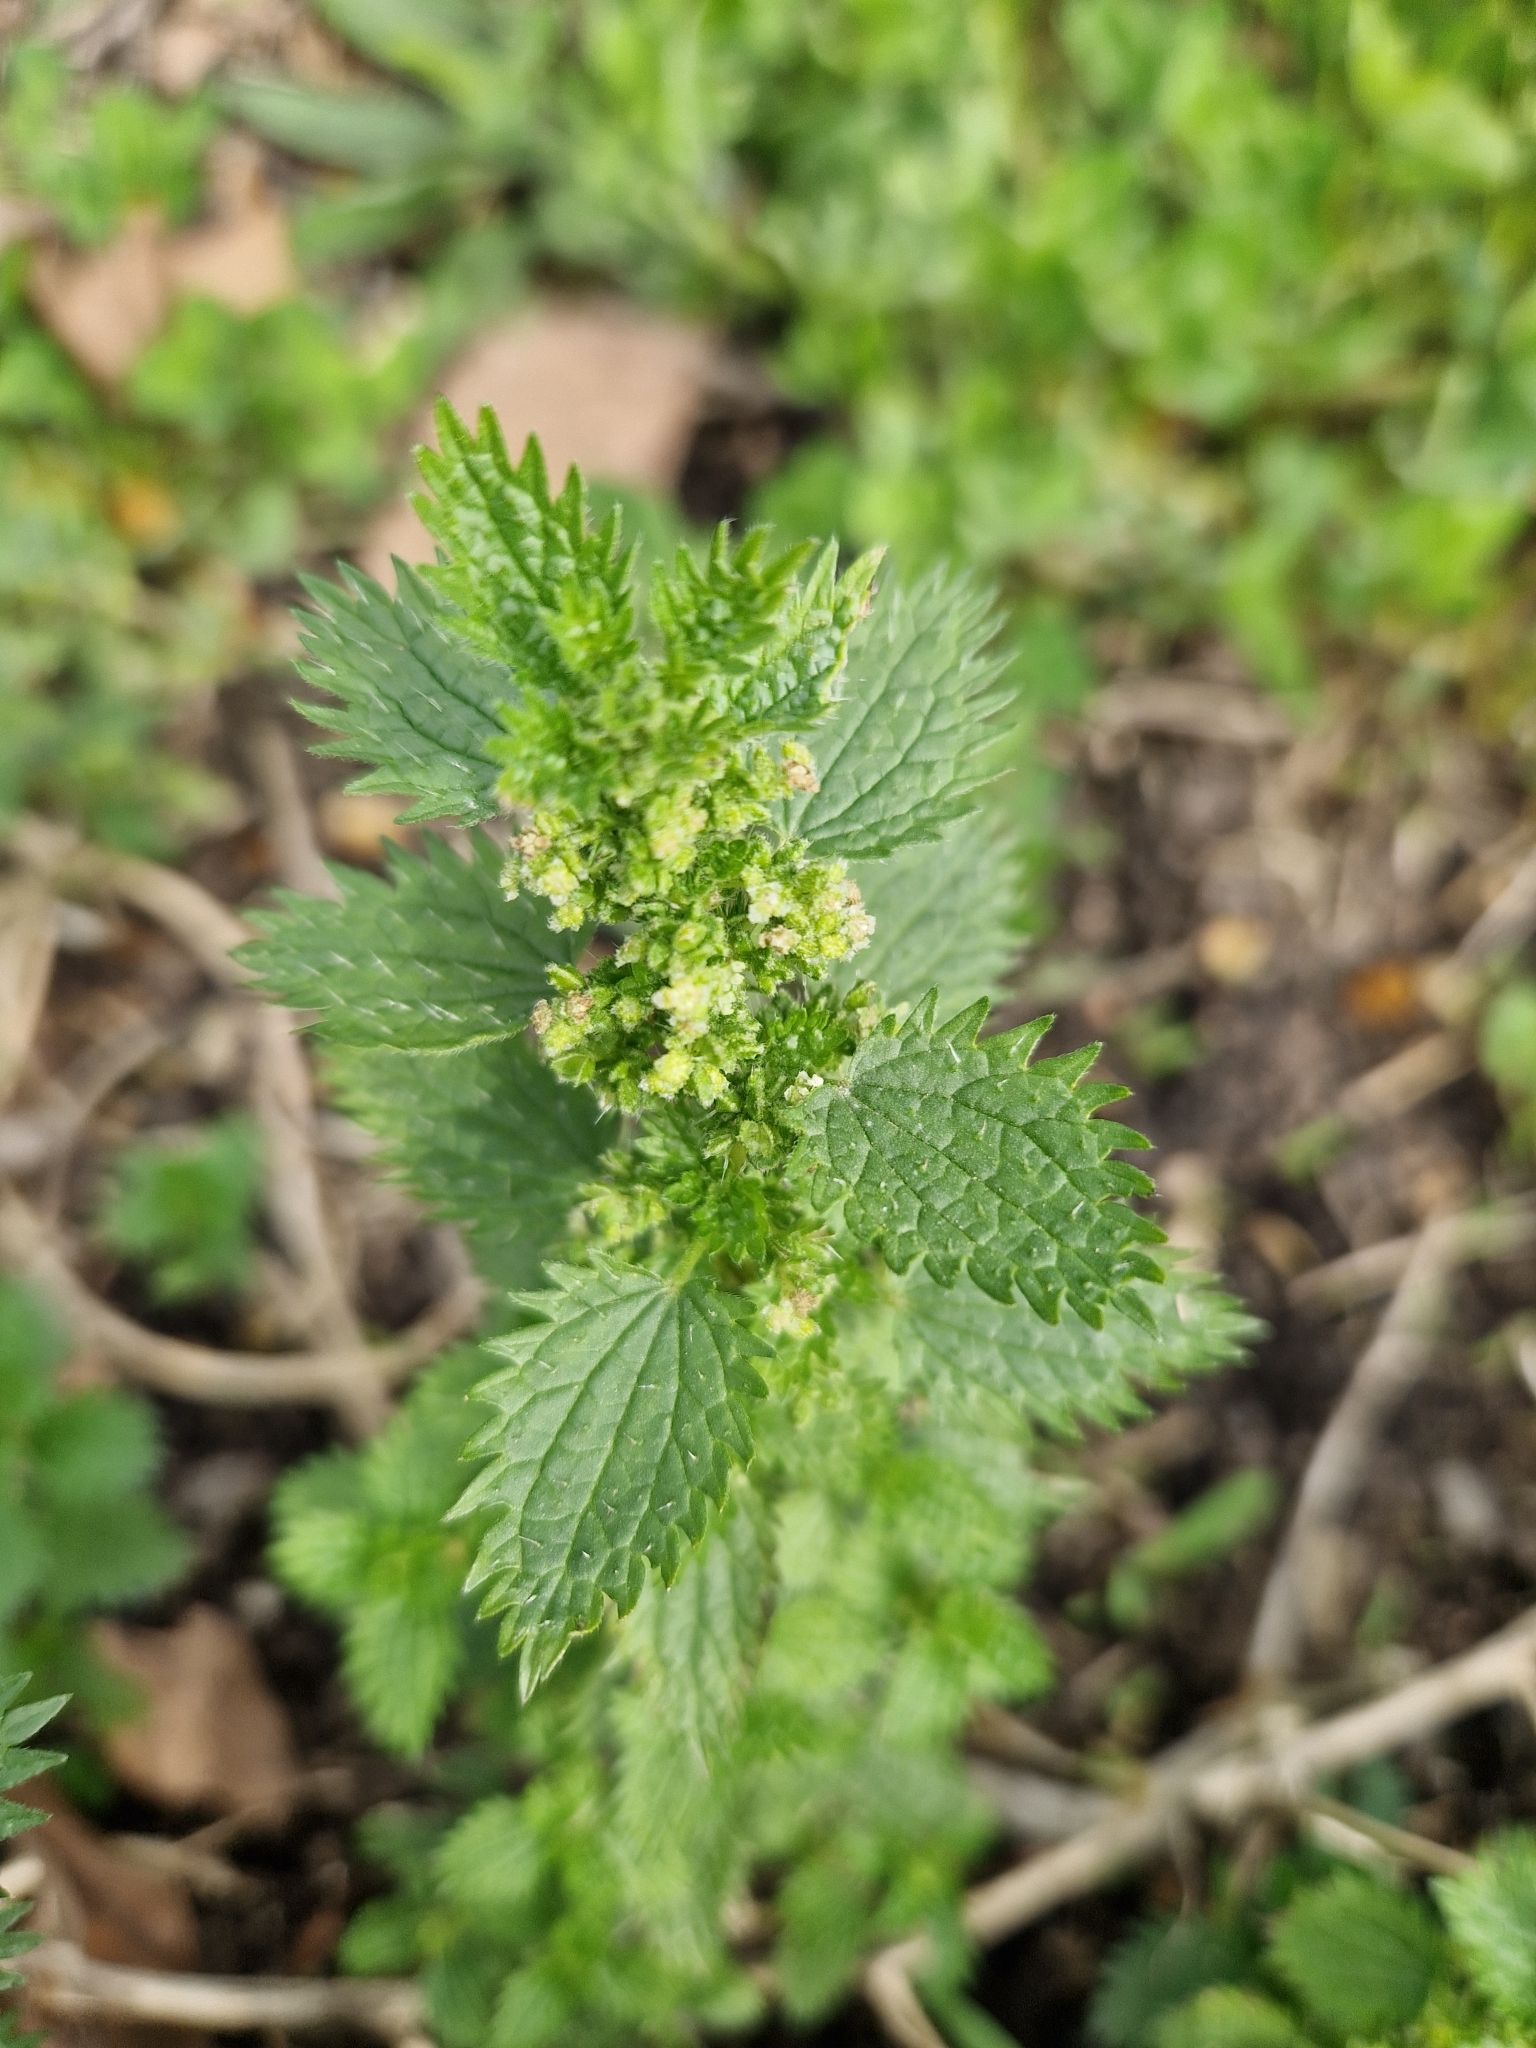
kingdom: Plantae
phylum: Tracheophyta
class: Magnoliopsida
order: Rosales
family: Urticaceae
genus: Urtica
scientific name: Urtica urens
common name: Dwarf nettle
